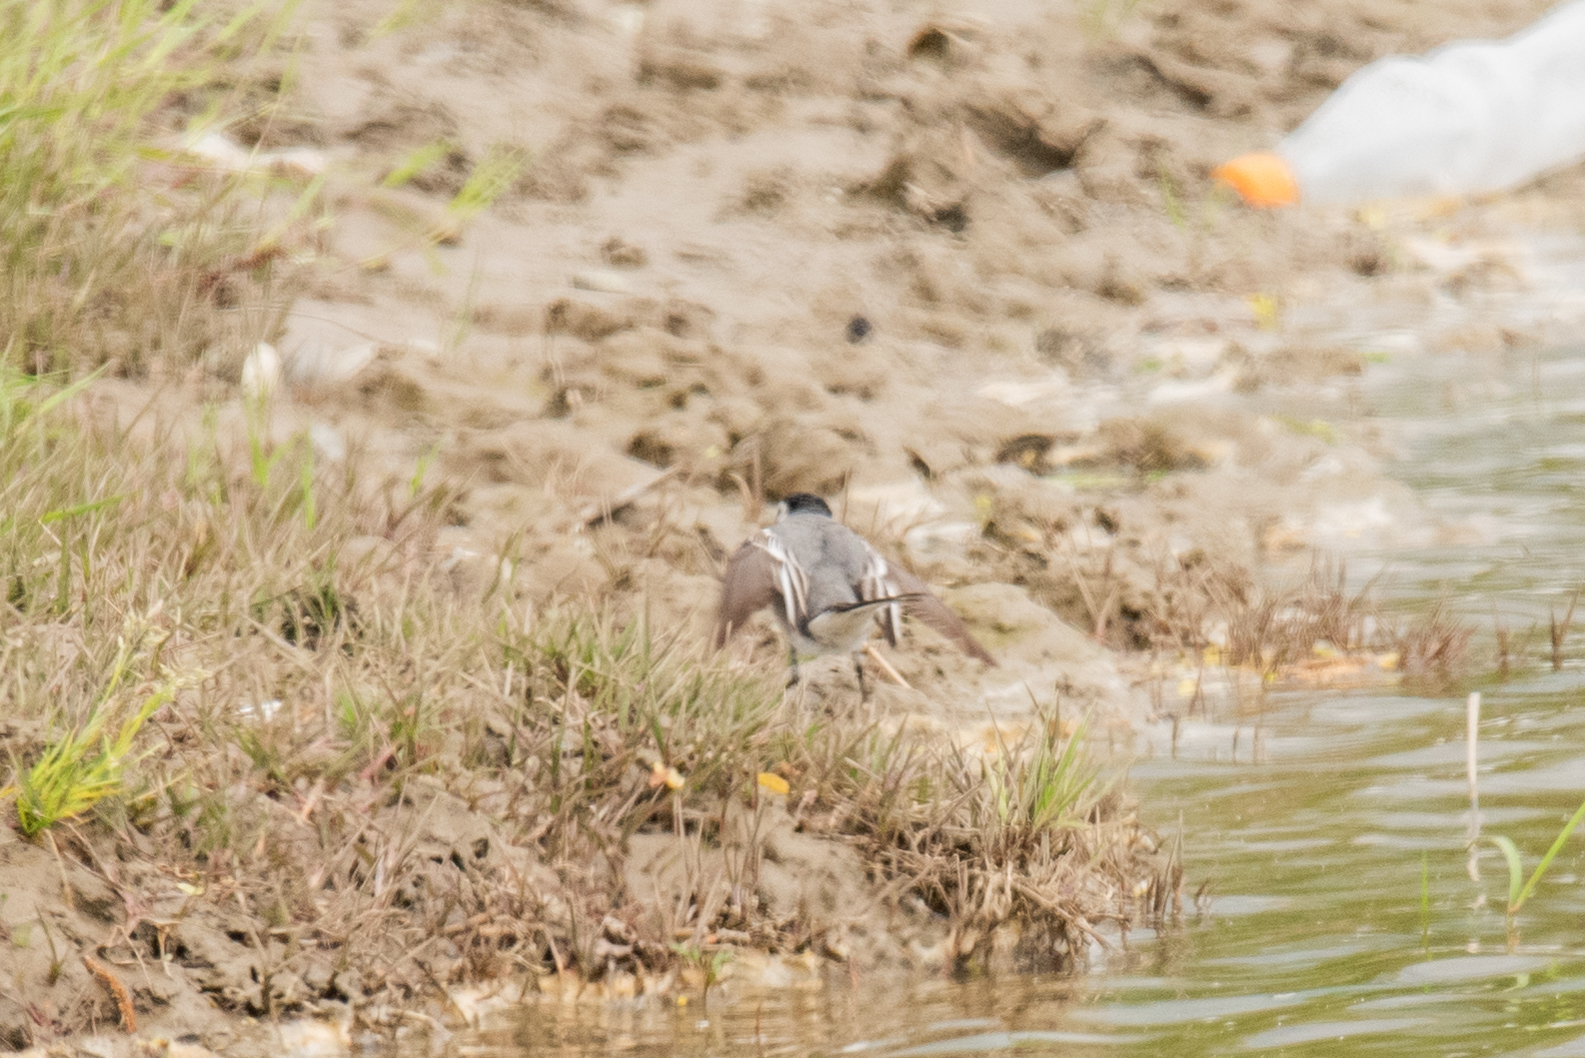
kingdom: Animalia
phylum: Chordata
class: Aves
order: Passeriformes
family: Motacillidae
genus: Motacilla
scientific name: Motacilla alba
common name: White wagtail
